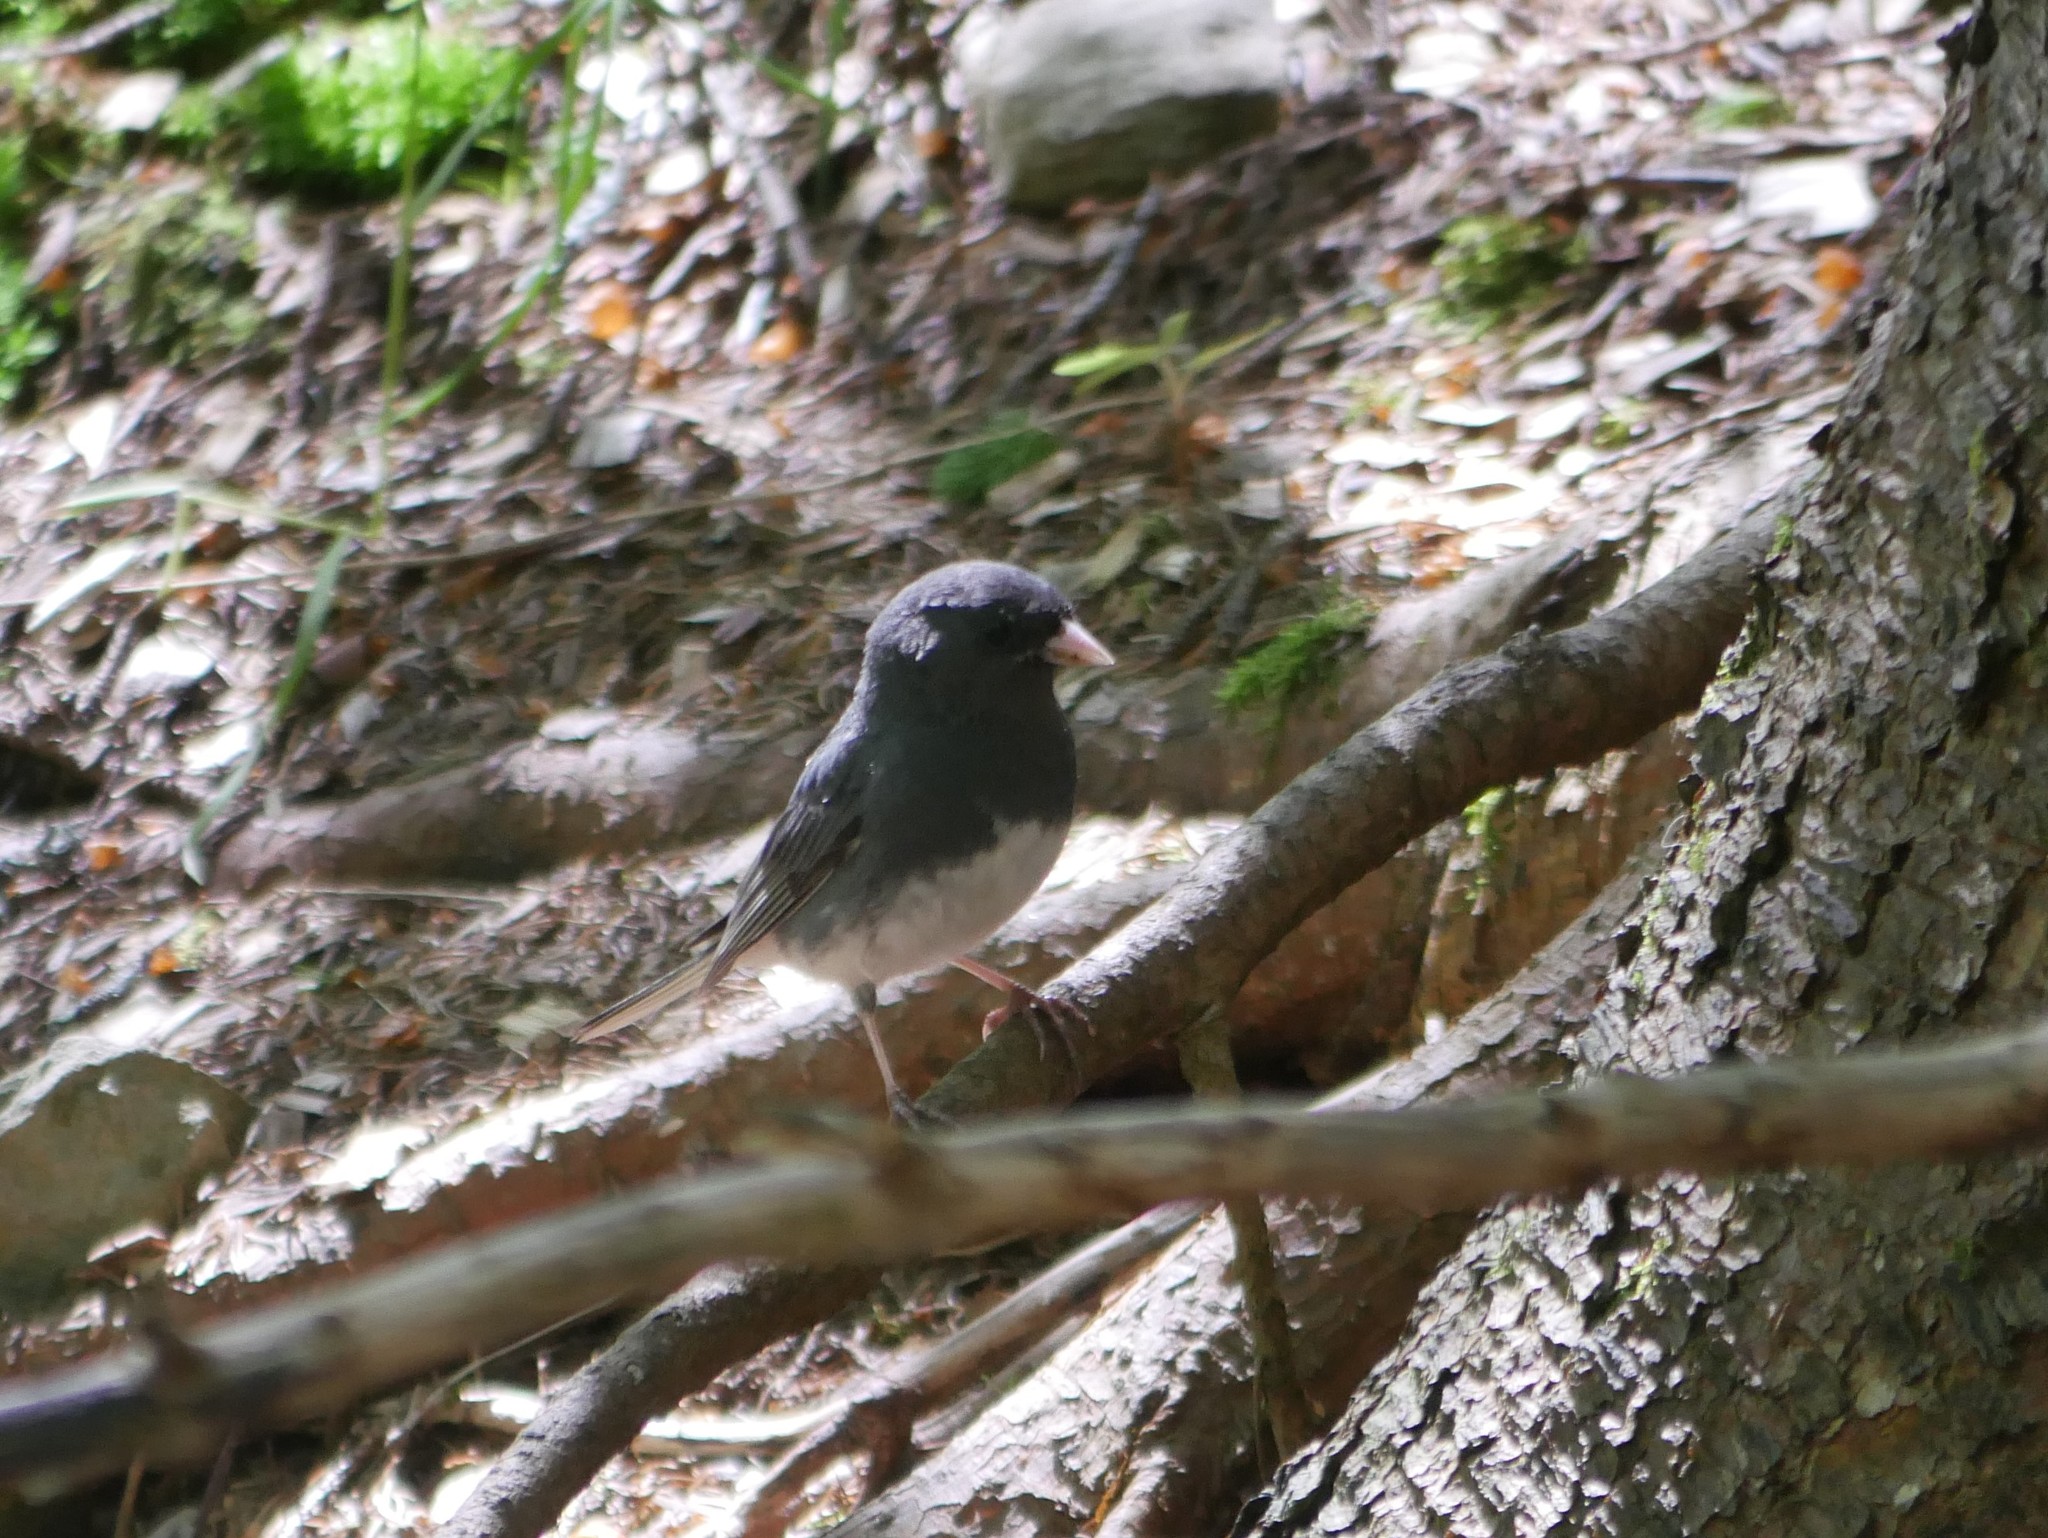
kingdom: Animalia
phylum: Chordata
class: Aves
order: Passeriformes
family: Passerellidae
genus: Junco
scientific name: Junco hyemalis
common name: Dark-eyed junco
